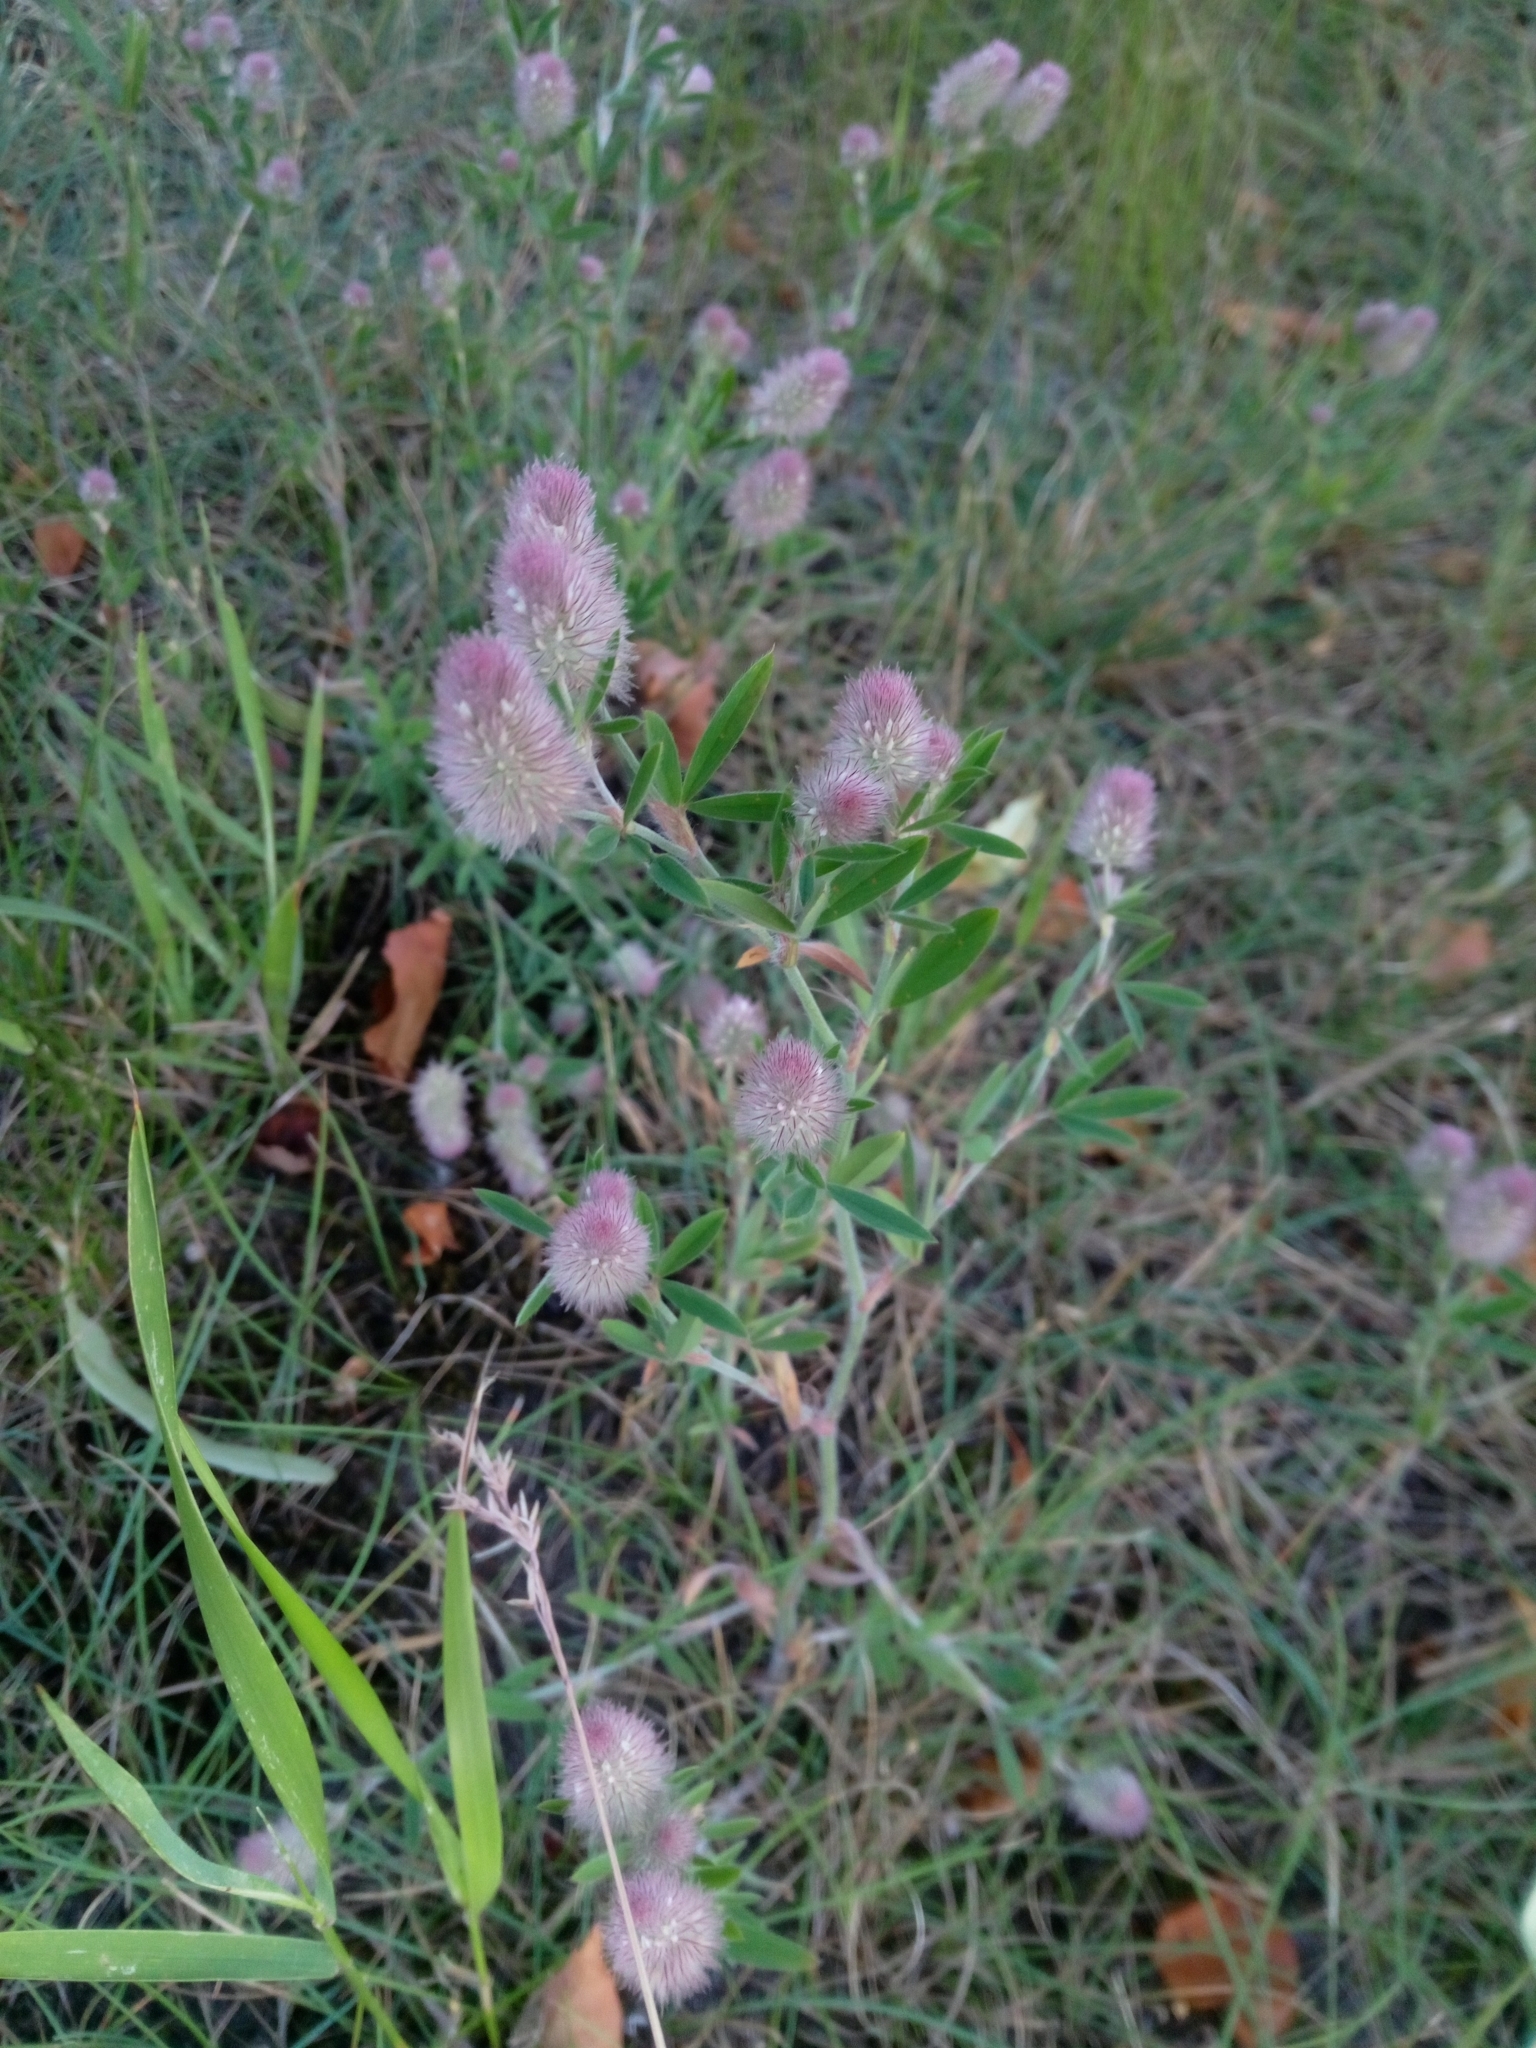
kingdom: Plantae
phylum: Tracheophyta
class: Magnoliopsida
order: Fabales
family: Fabaceae
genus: Trifolium
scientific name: Trifolium arvense
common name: Hare's-foot clover
